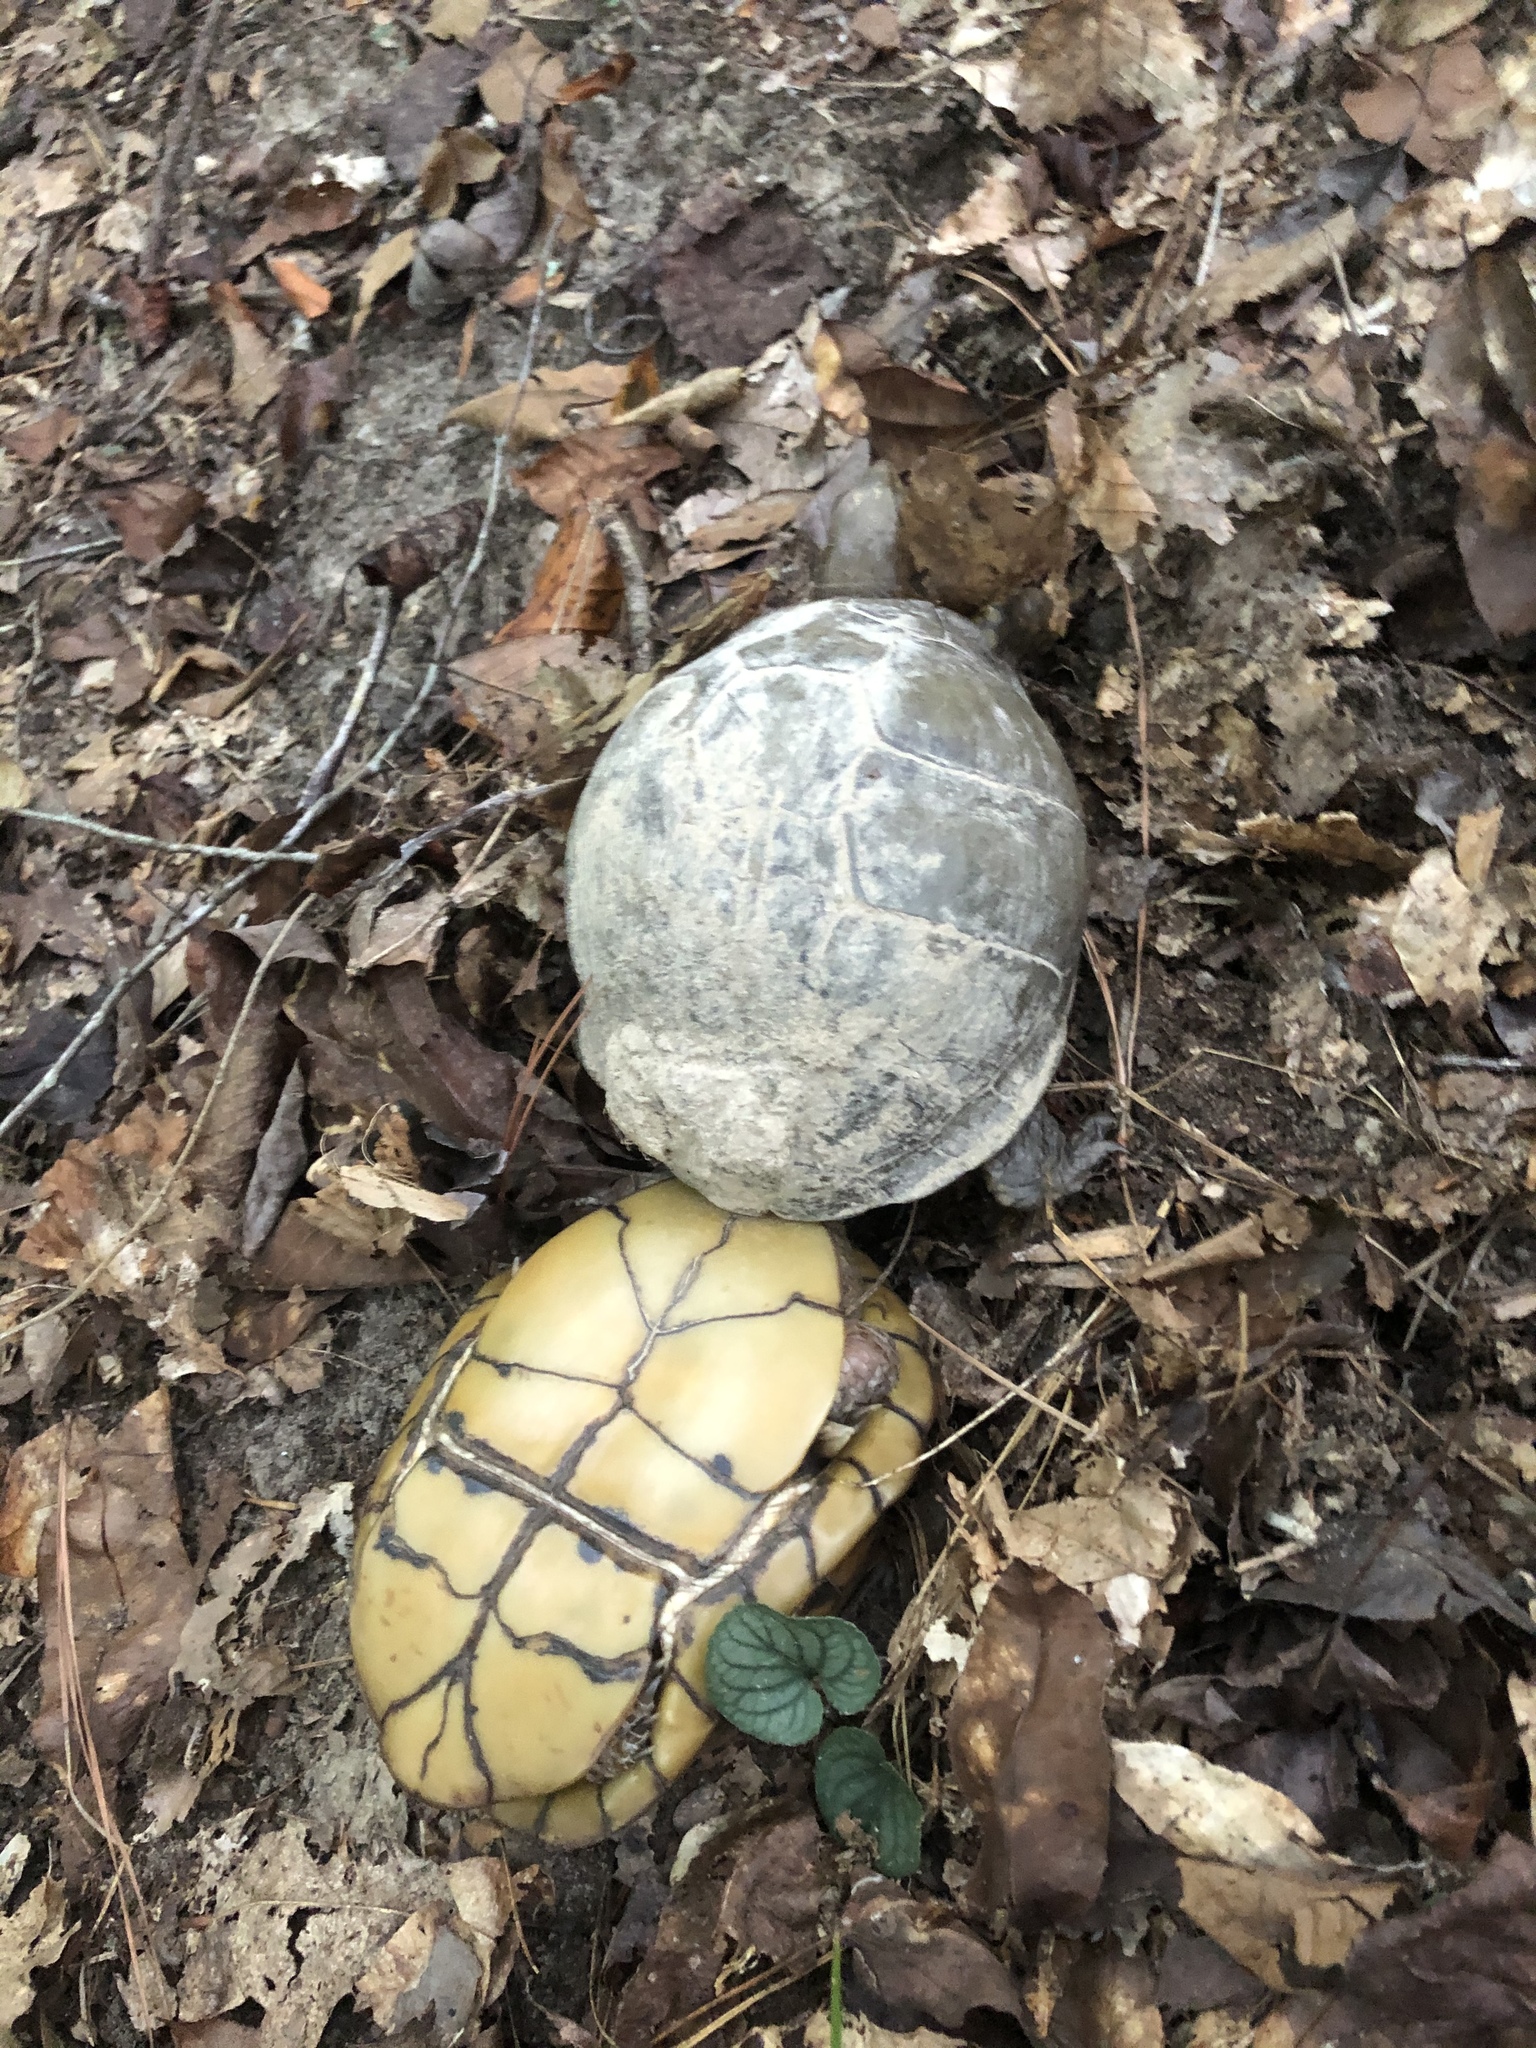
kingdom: Animalia
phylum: Chordata
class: Testudines
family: Emydidae
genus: Terrapene
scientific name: Terrapene carolina
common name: Common box turtle
